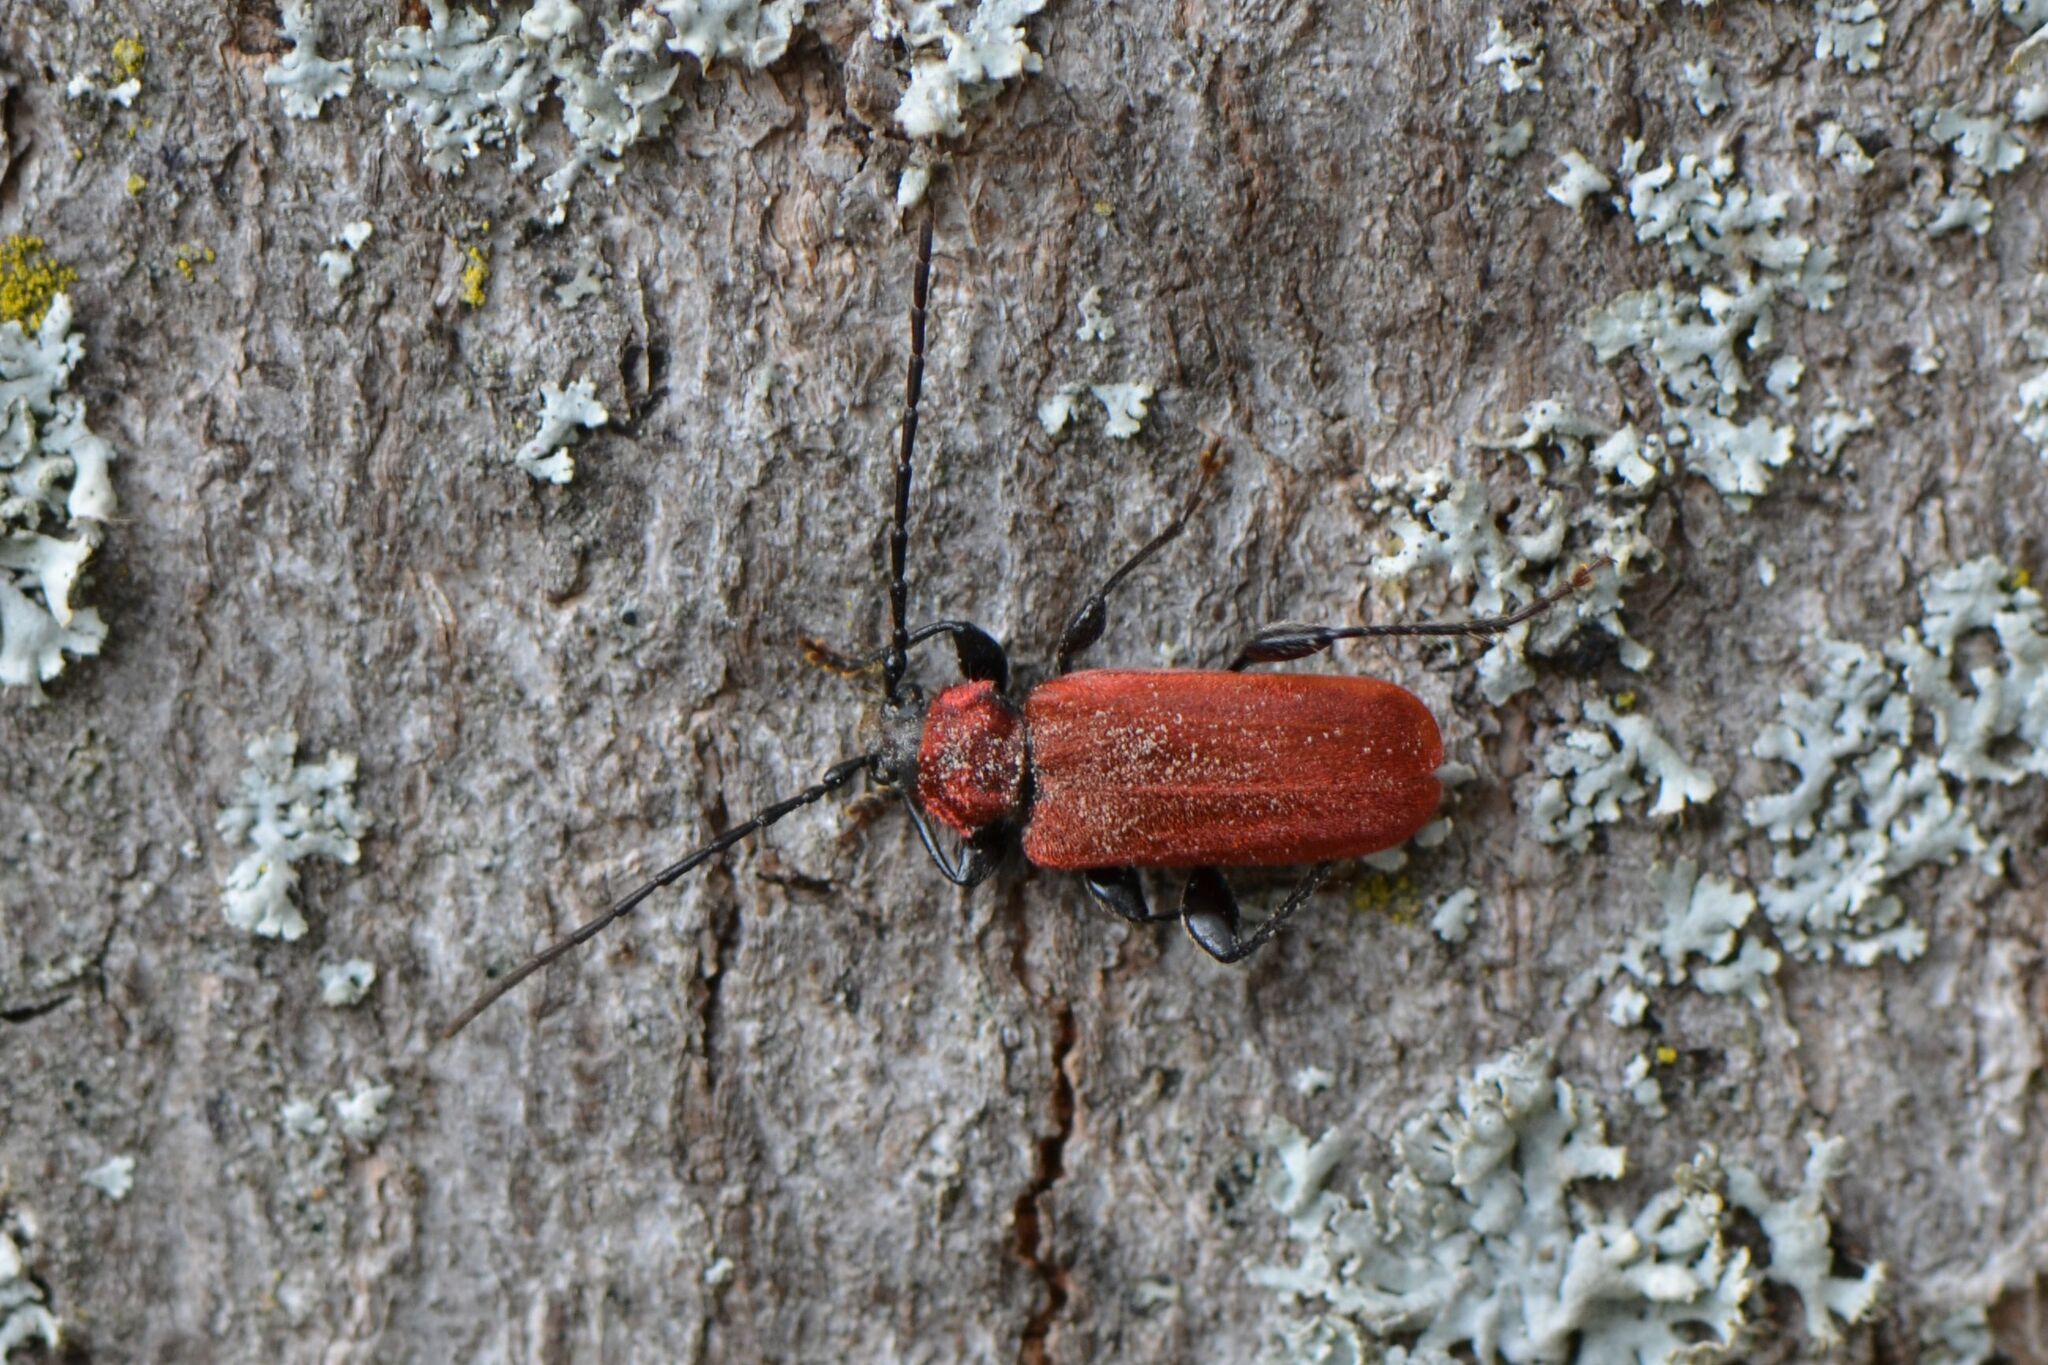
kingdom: Animalia
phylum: Arthropoda
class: Insecta
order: Coleoptera
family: Cerambycidae
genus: Pyrrhidium
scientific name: Pyrrhidium sanguineum
